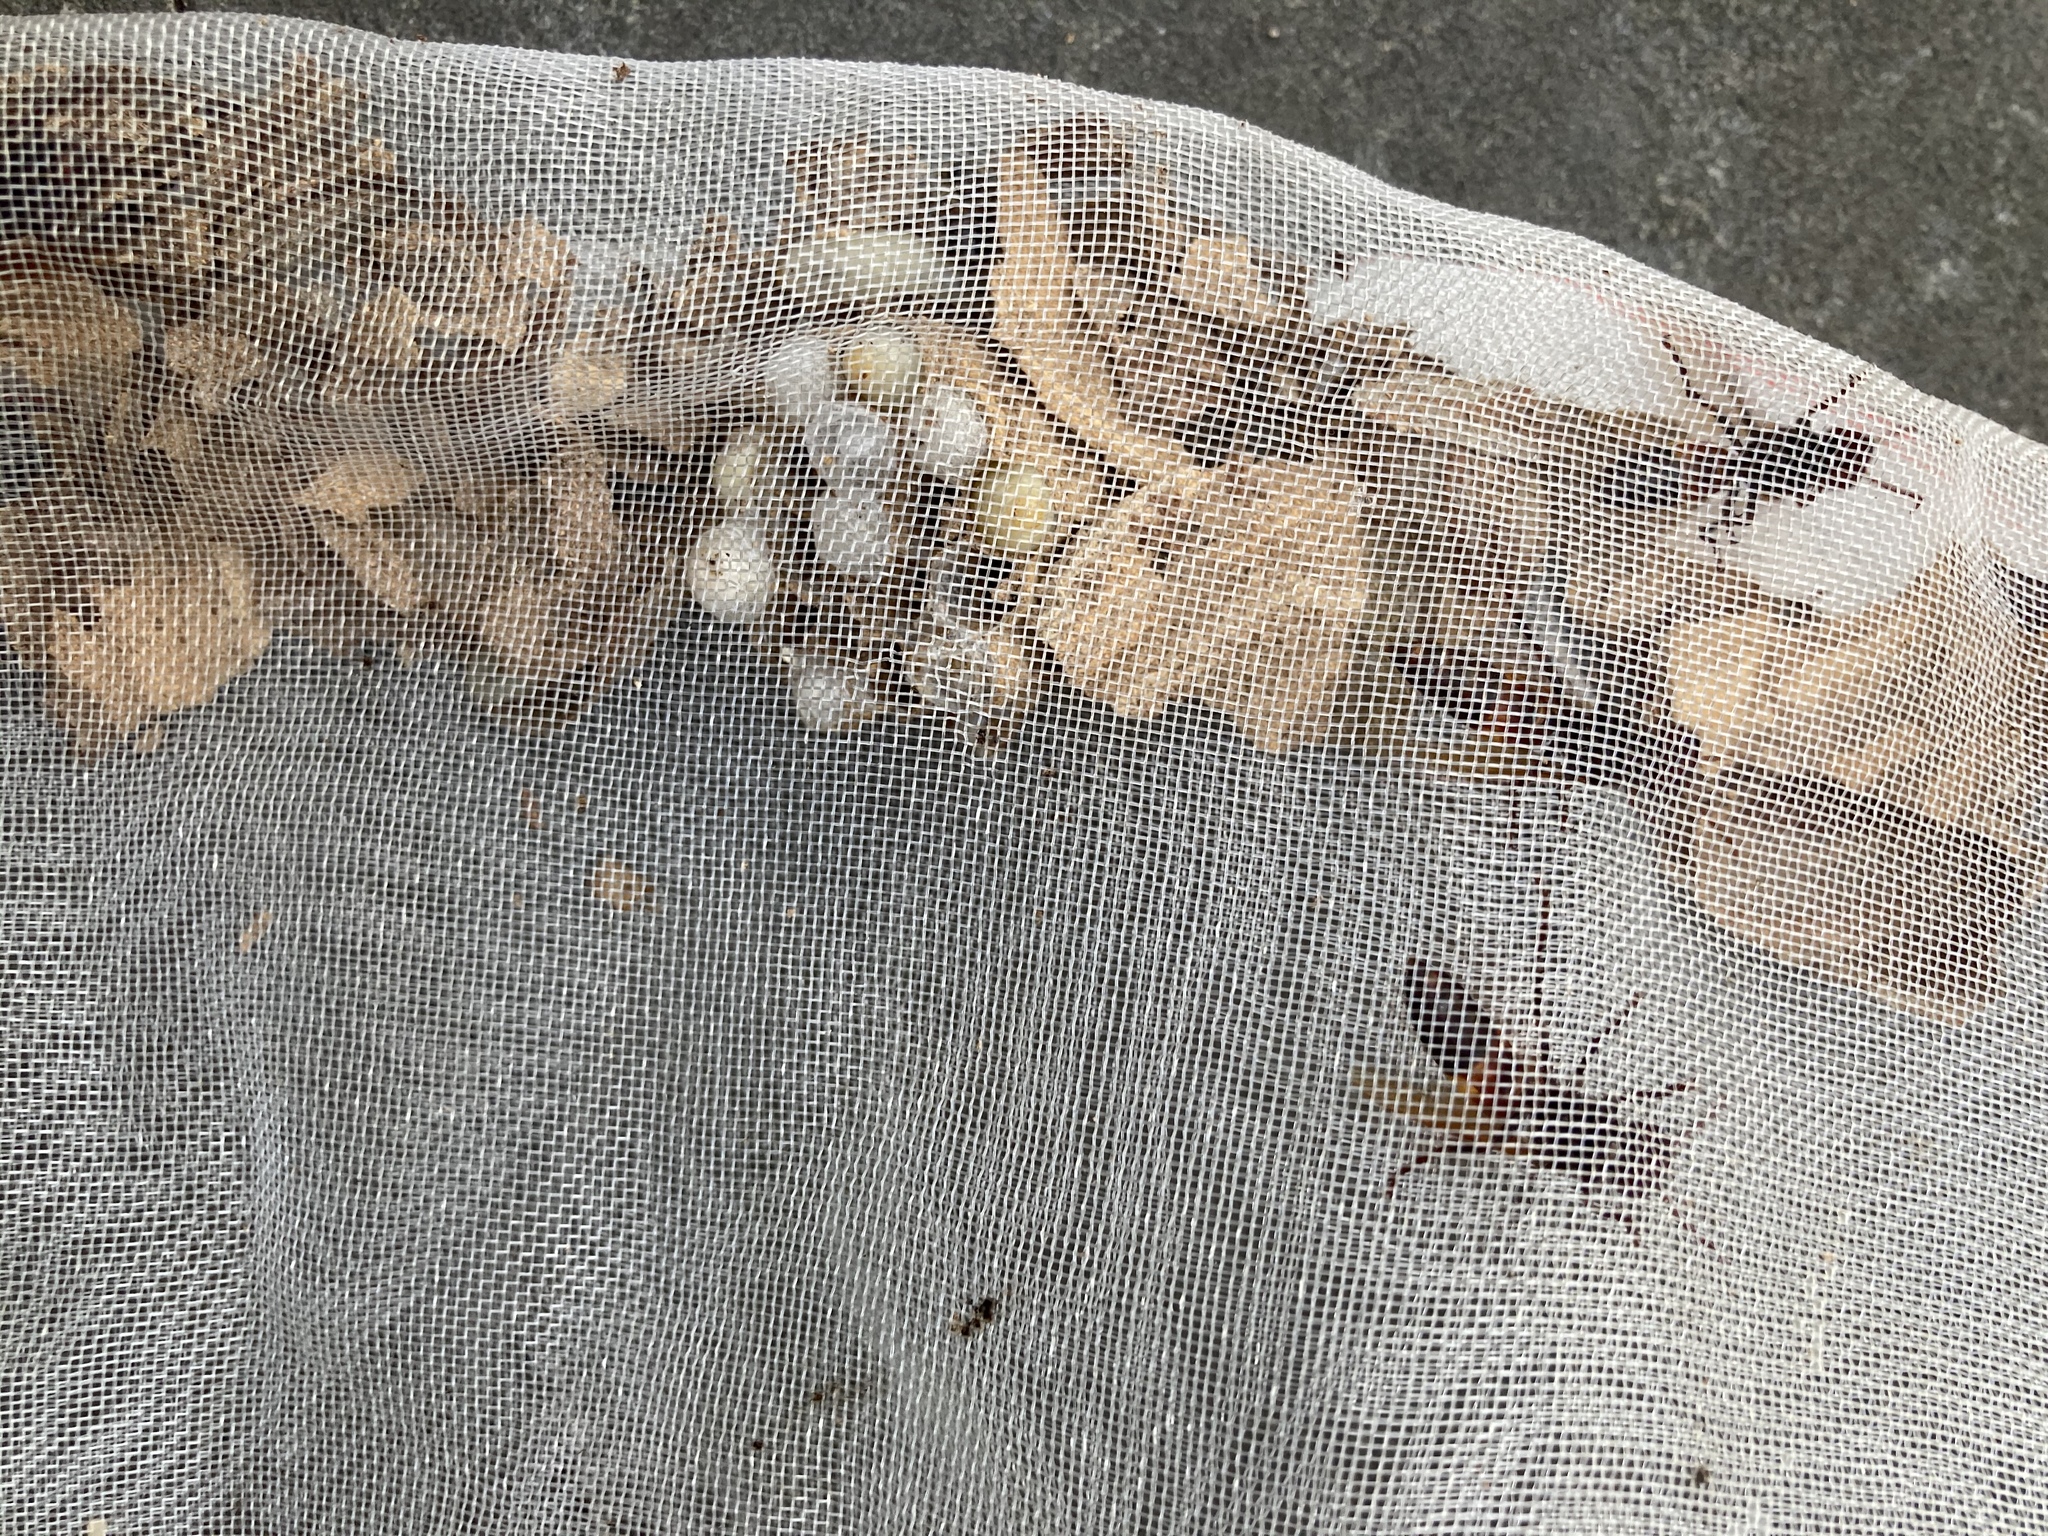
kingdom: Animalia
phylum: Arthropoda
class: Insecta
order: Hymenoptera
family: Vespidae
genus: Vespa
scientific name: Vespa affinis
